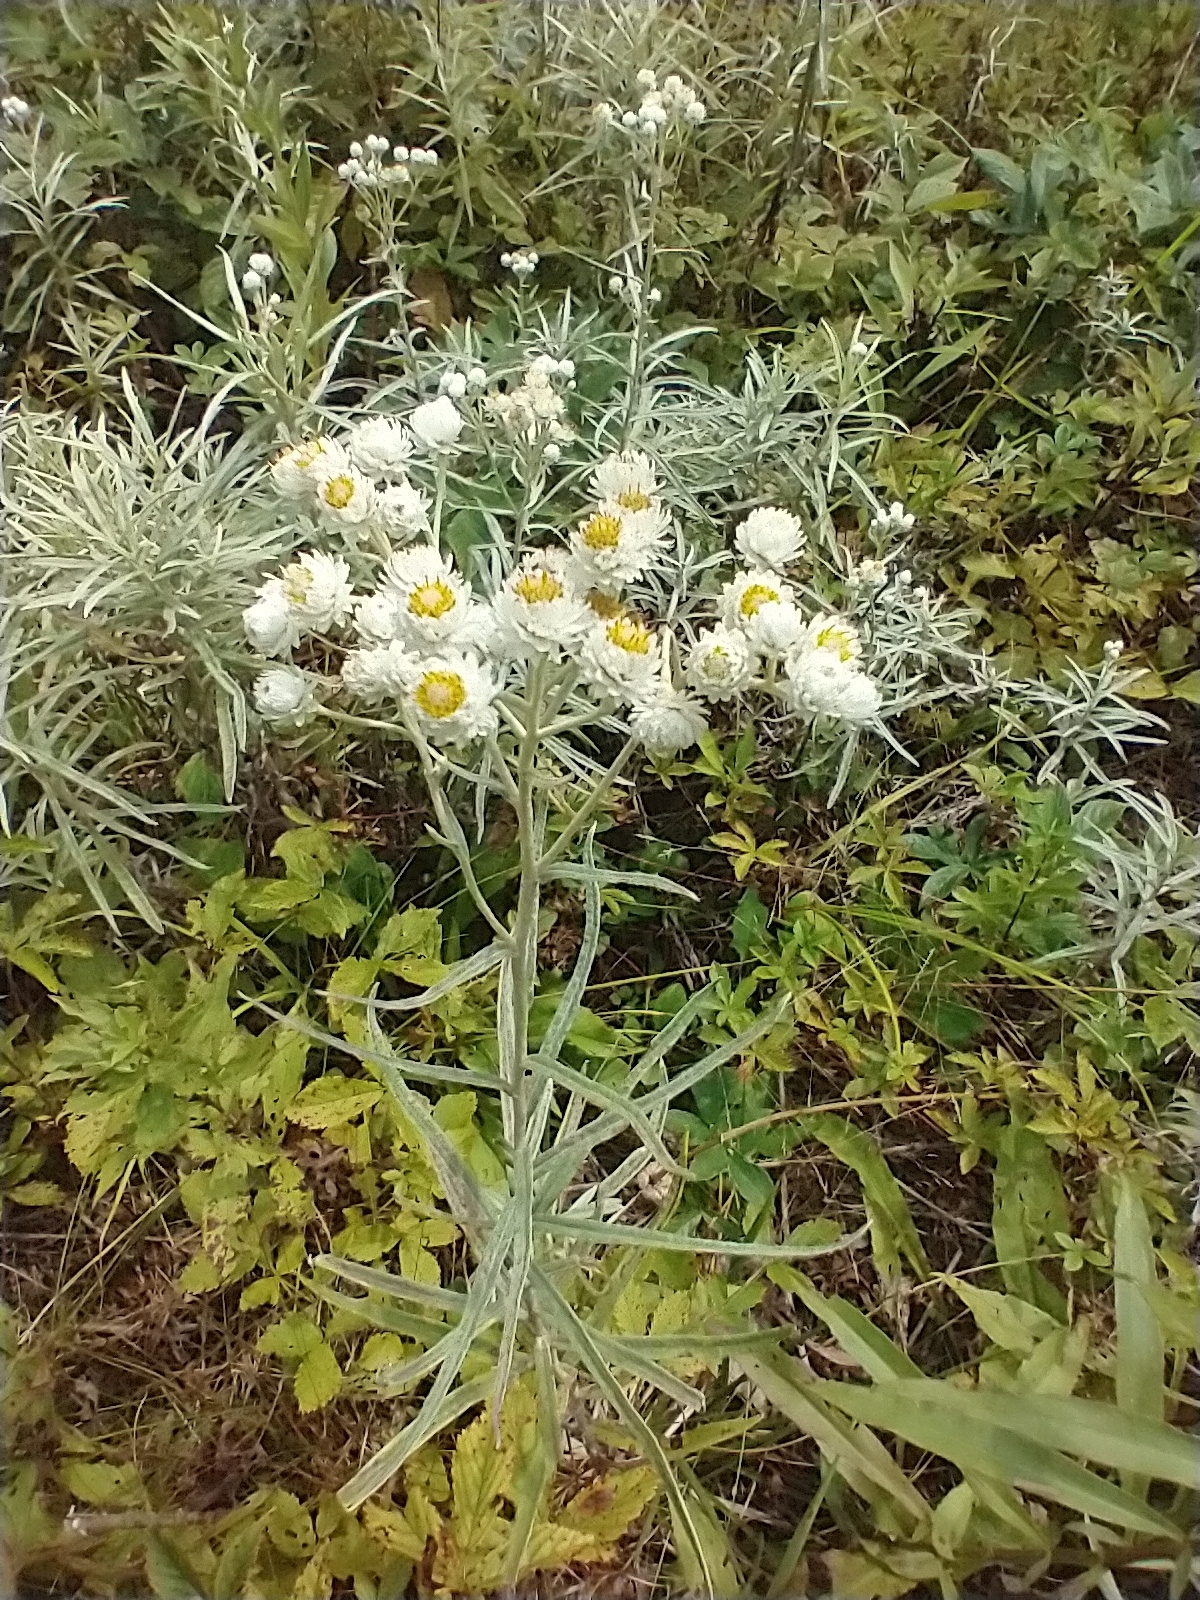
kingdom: Plantae
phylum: Tracheophyta
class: Magnoliopsida
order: Asterales
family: Asteraceae
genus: Anaphalis
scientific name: Anaphalis margaritacea
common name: Pearly everlasting
